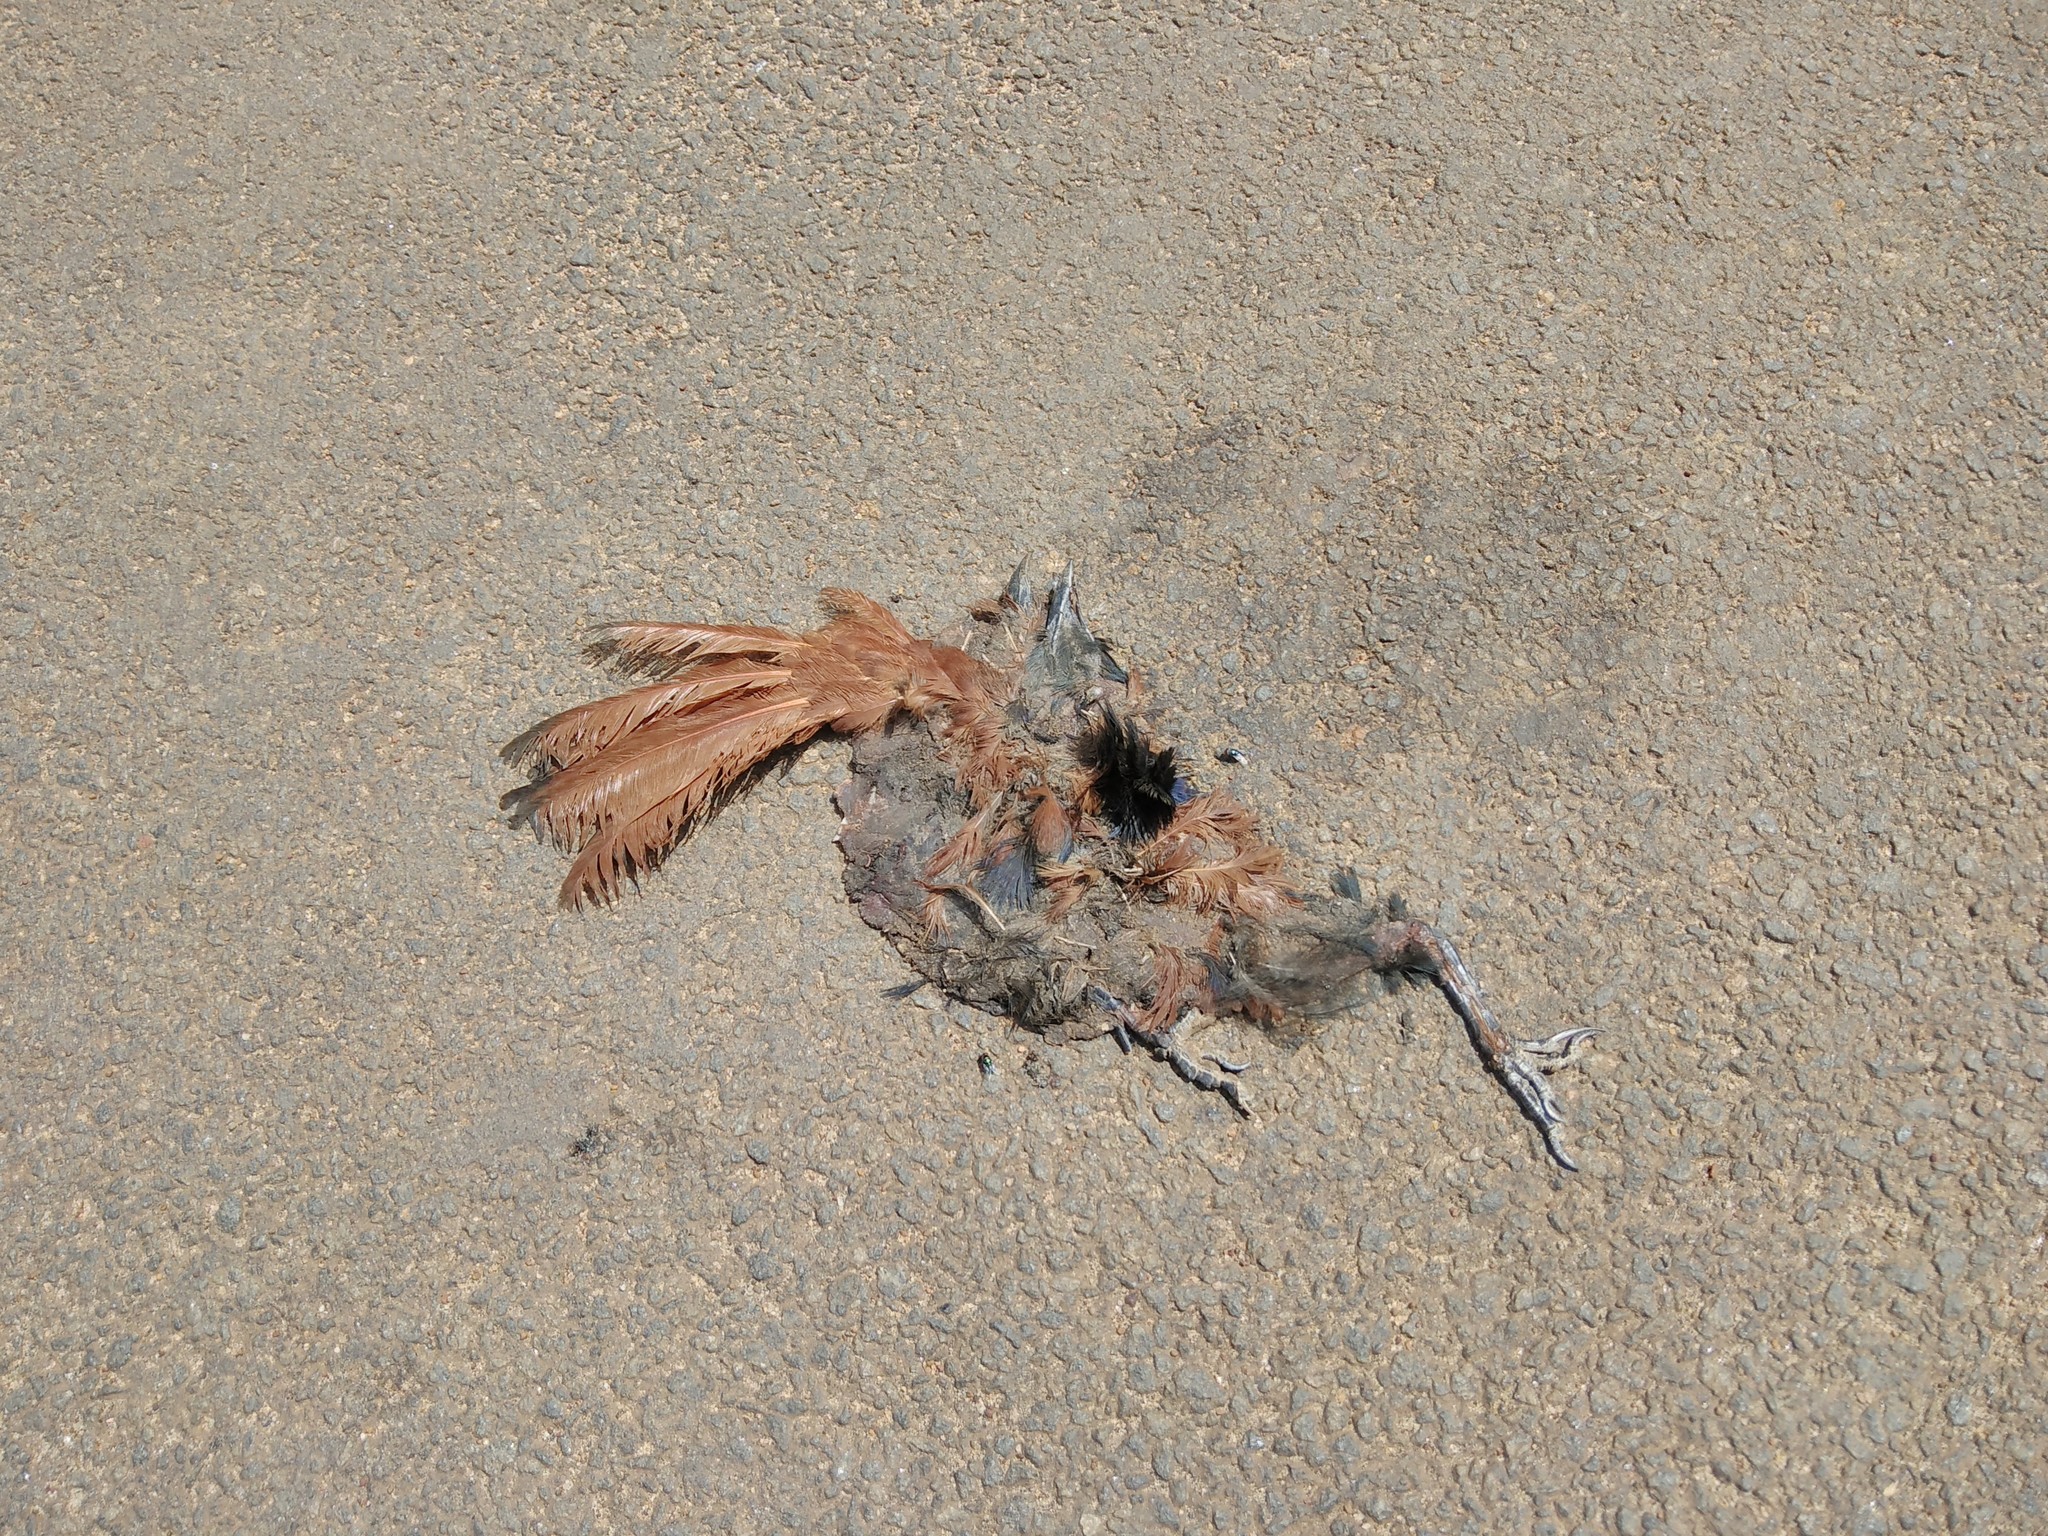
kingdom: Animalia
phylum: Chordata
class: Aves
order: Cuculiformes
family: Cuculidae
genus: Centropus
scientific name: Centropus sinensis
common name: Greater coucal
